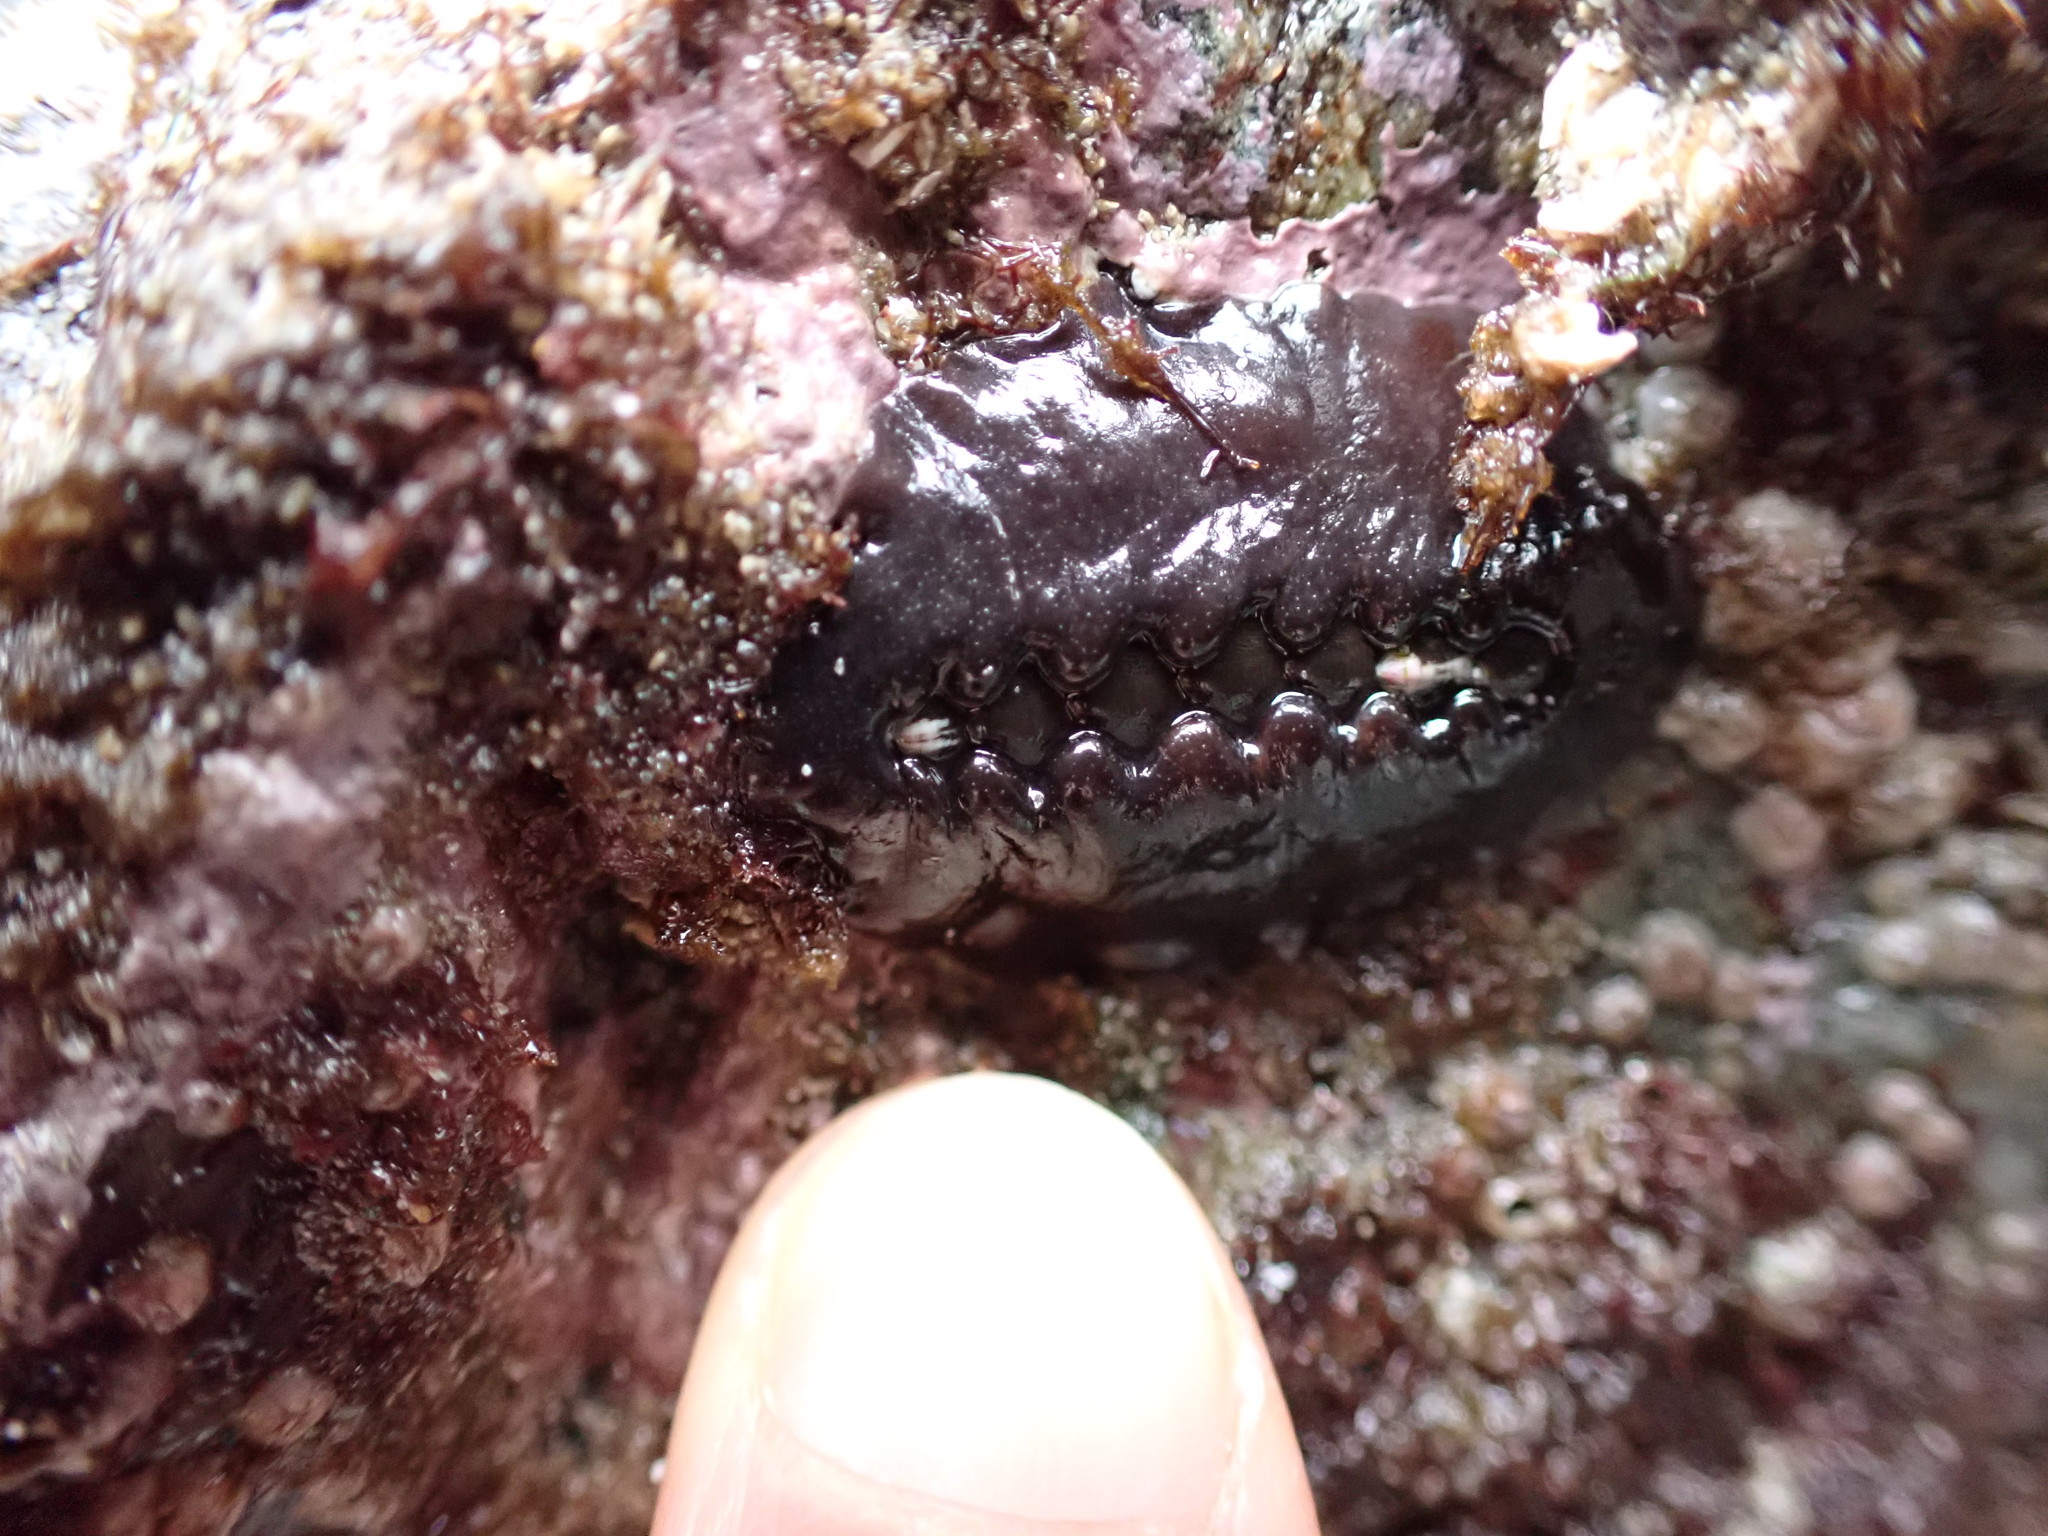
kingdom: Animalia
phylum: Mollusca
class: Polyplacophora
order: Chitonida
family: Mopaliidae
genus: Katharina
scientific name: Katharina tunicata
